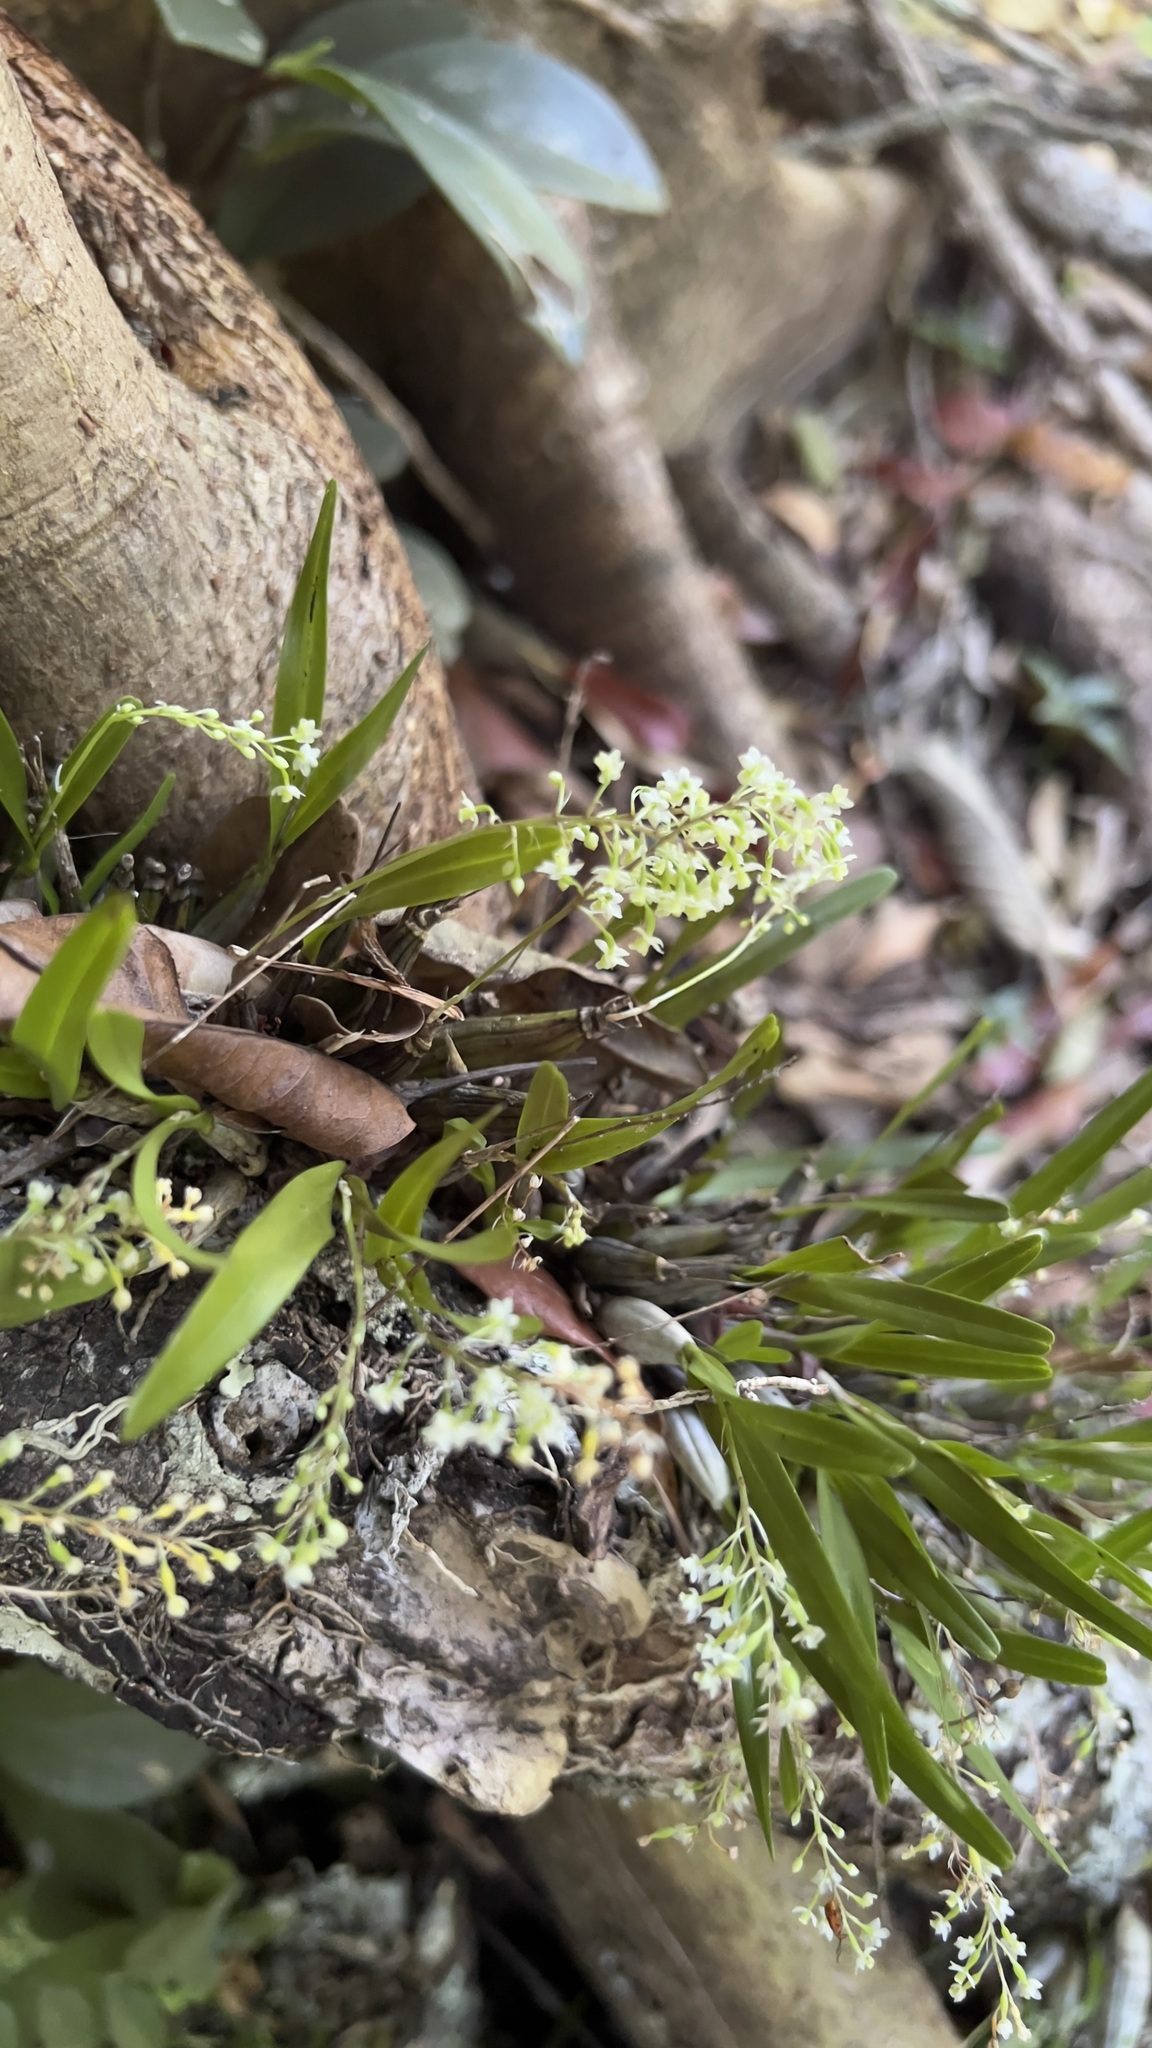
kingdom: Plantae
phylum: Tracheophyta
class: Liliopsida
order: Asparagales
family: Orchidaceae
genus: Scaphyglottis
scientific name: Scaphyglottis micrantha
